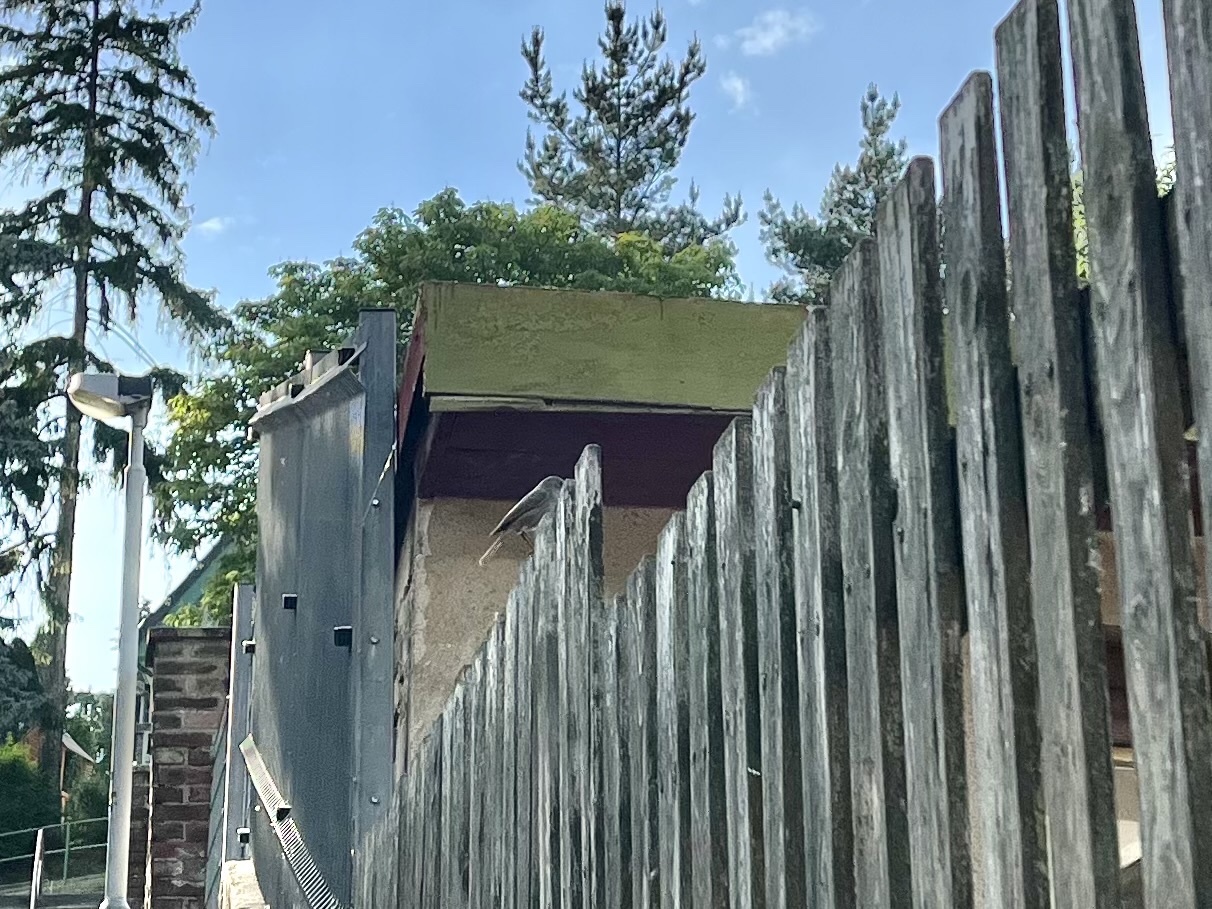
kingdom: Animalia
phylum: Chordata
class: Aves
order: Passeriformes
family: Muscicapidae
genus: Phoenicurus
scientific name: Phoenicurus ochruros
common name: Black redstart
